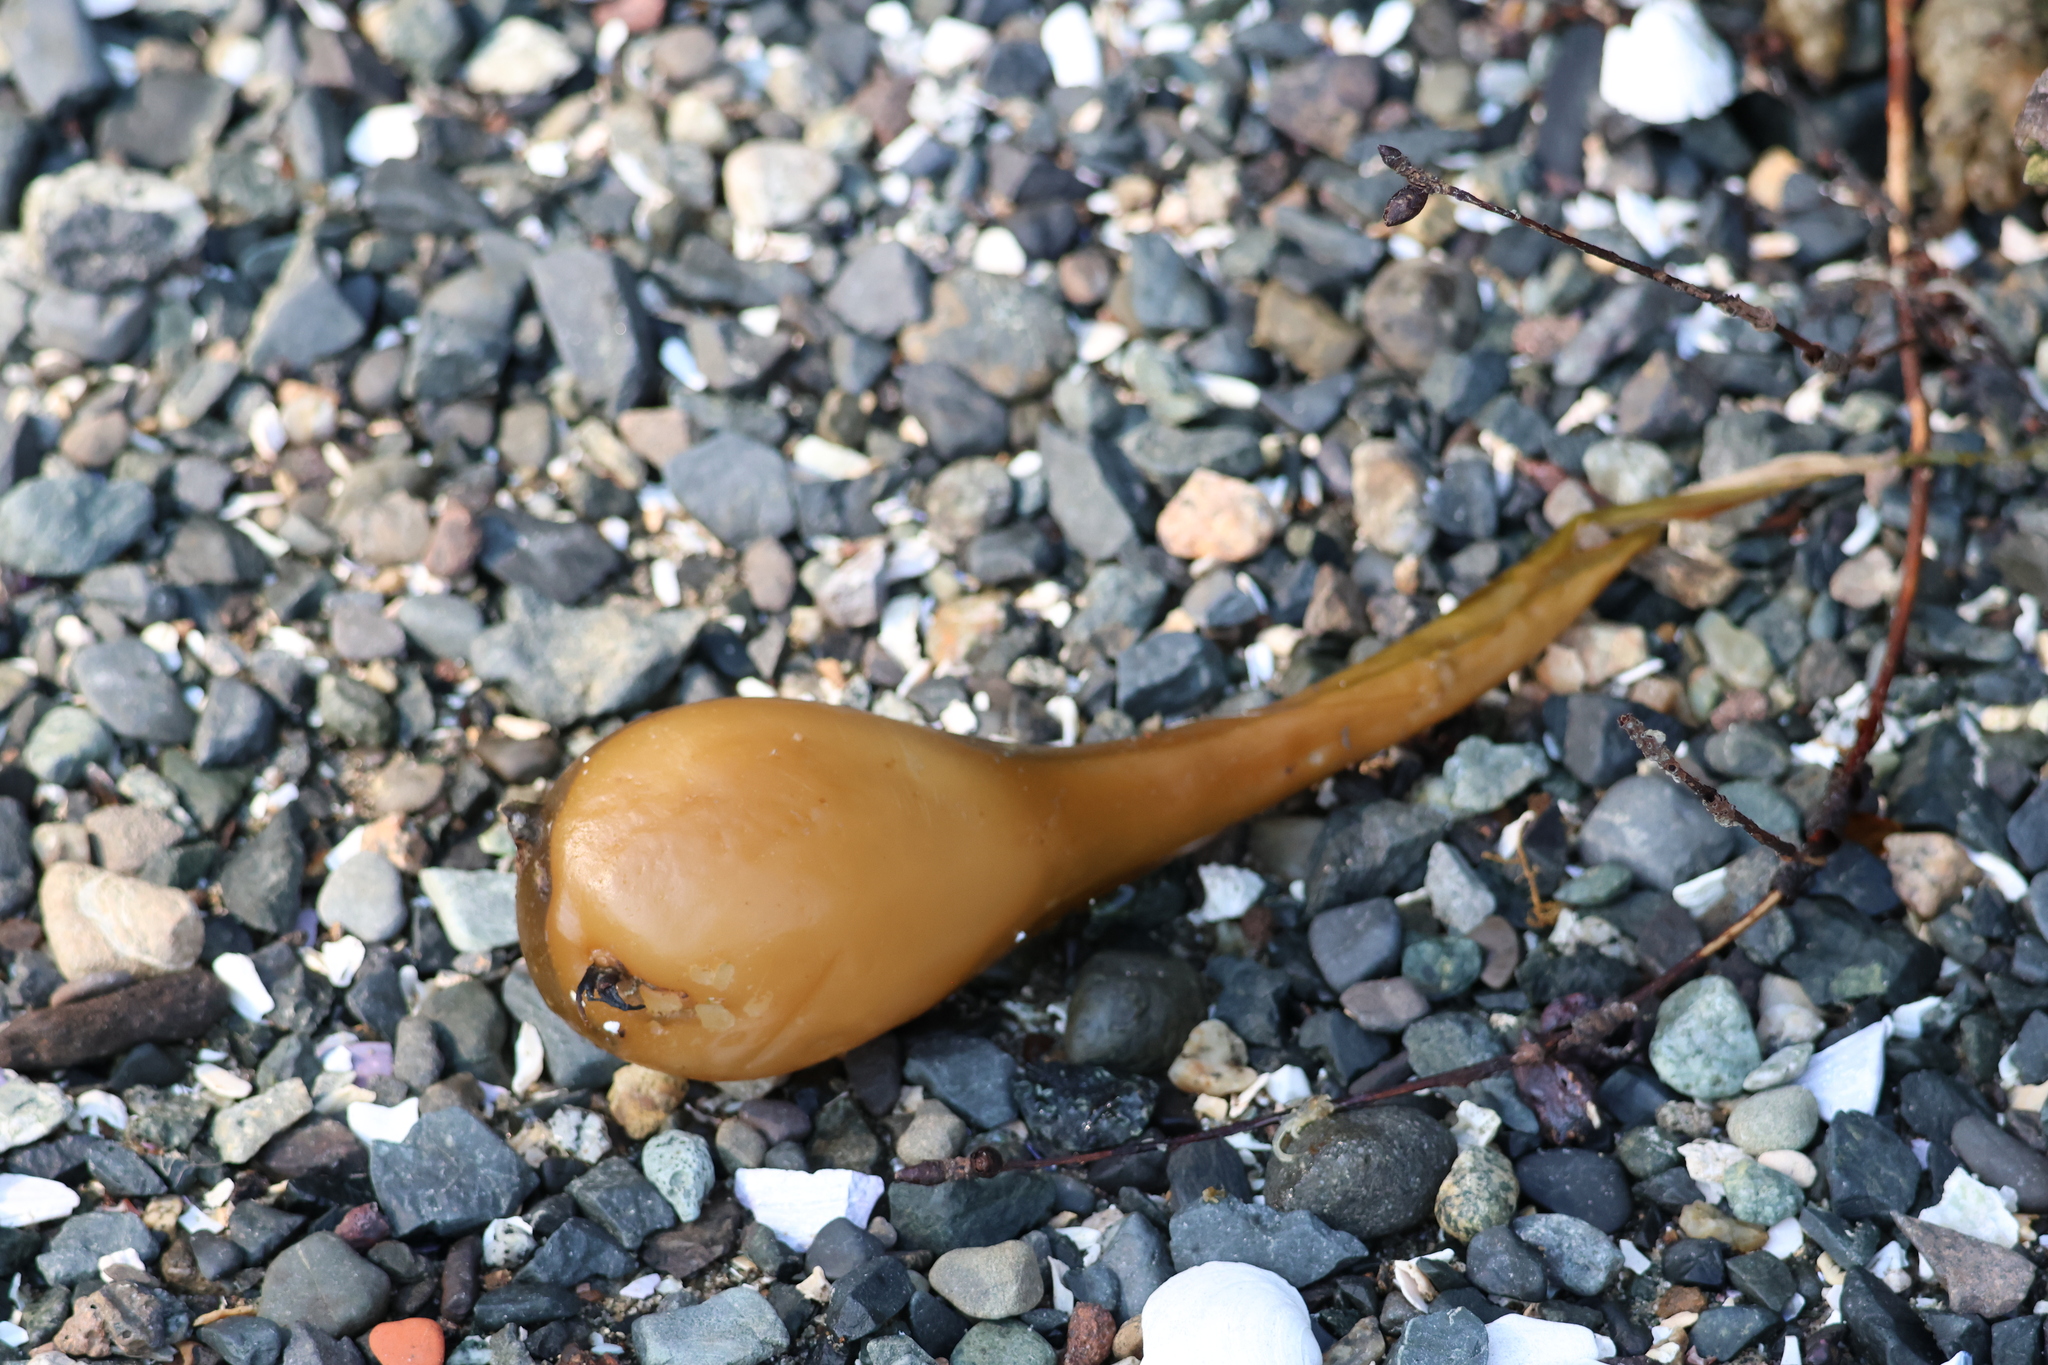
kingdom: Chromista
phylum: Ochrophyta
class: Phaeophyceae
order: Laminariales
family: Laminariaceae
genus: Nereocystis
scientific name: Nereocystis luetkeana
